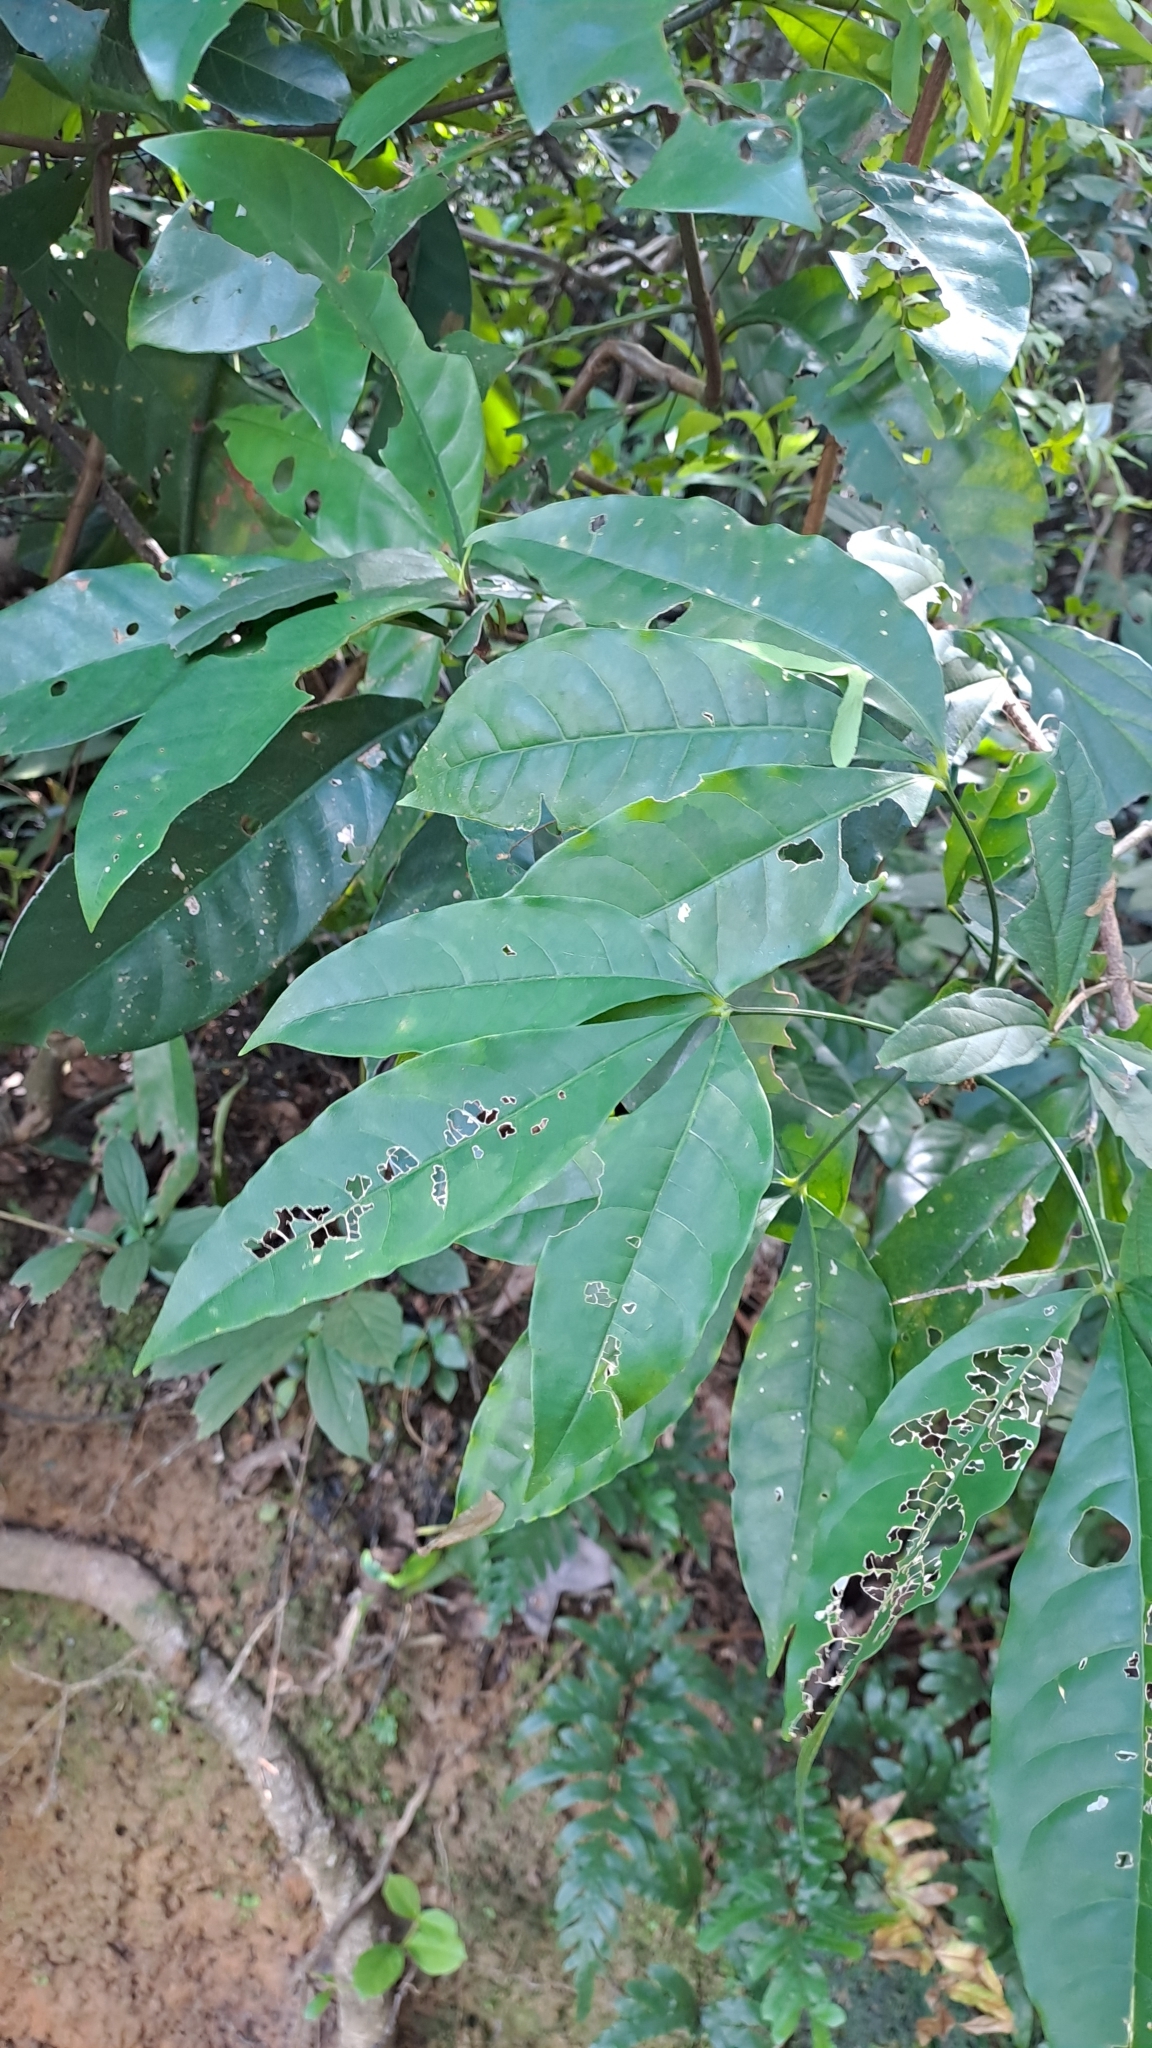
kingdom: Plantae
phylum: Tracheophyta
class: Magnoliopsida
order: Sapindales
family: Rutaceae
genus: Melicope
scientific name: Melicope pteleifolia
